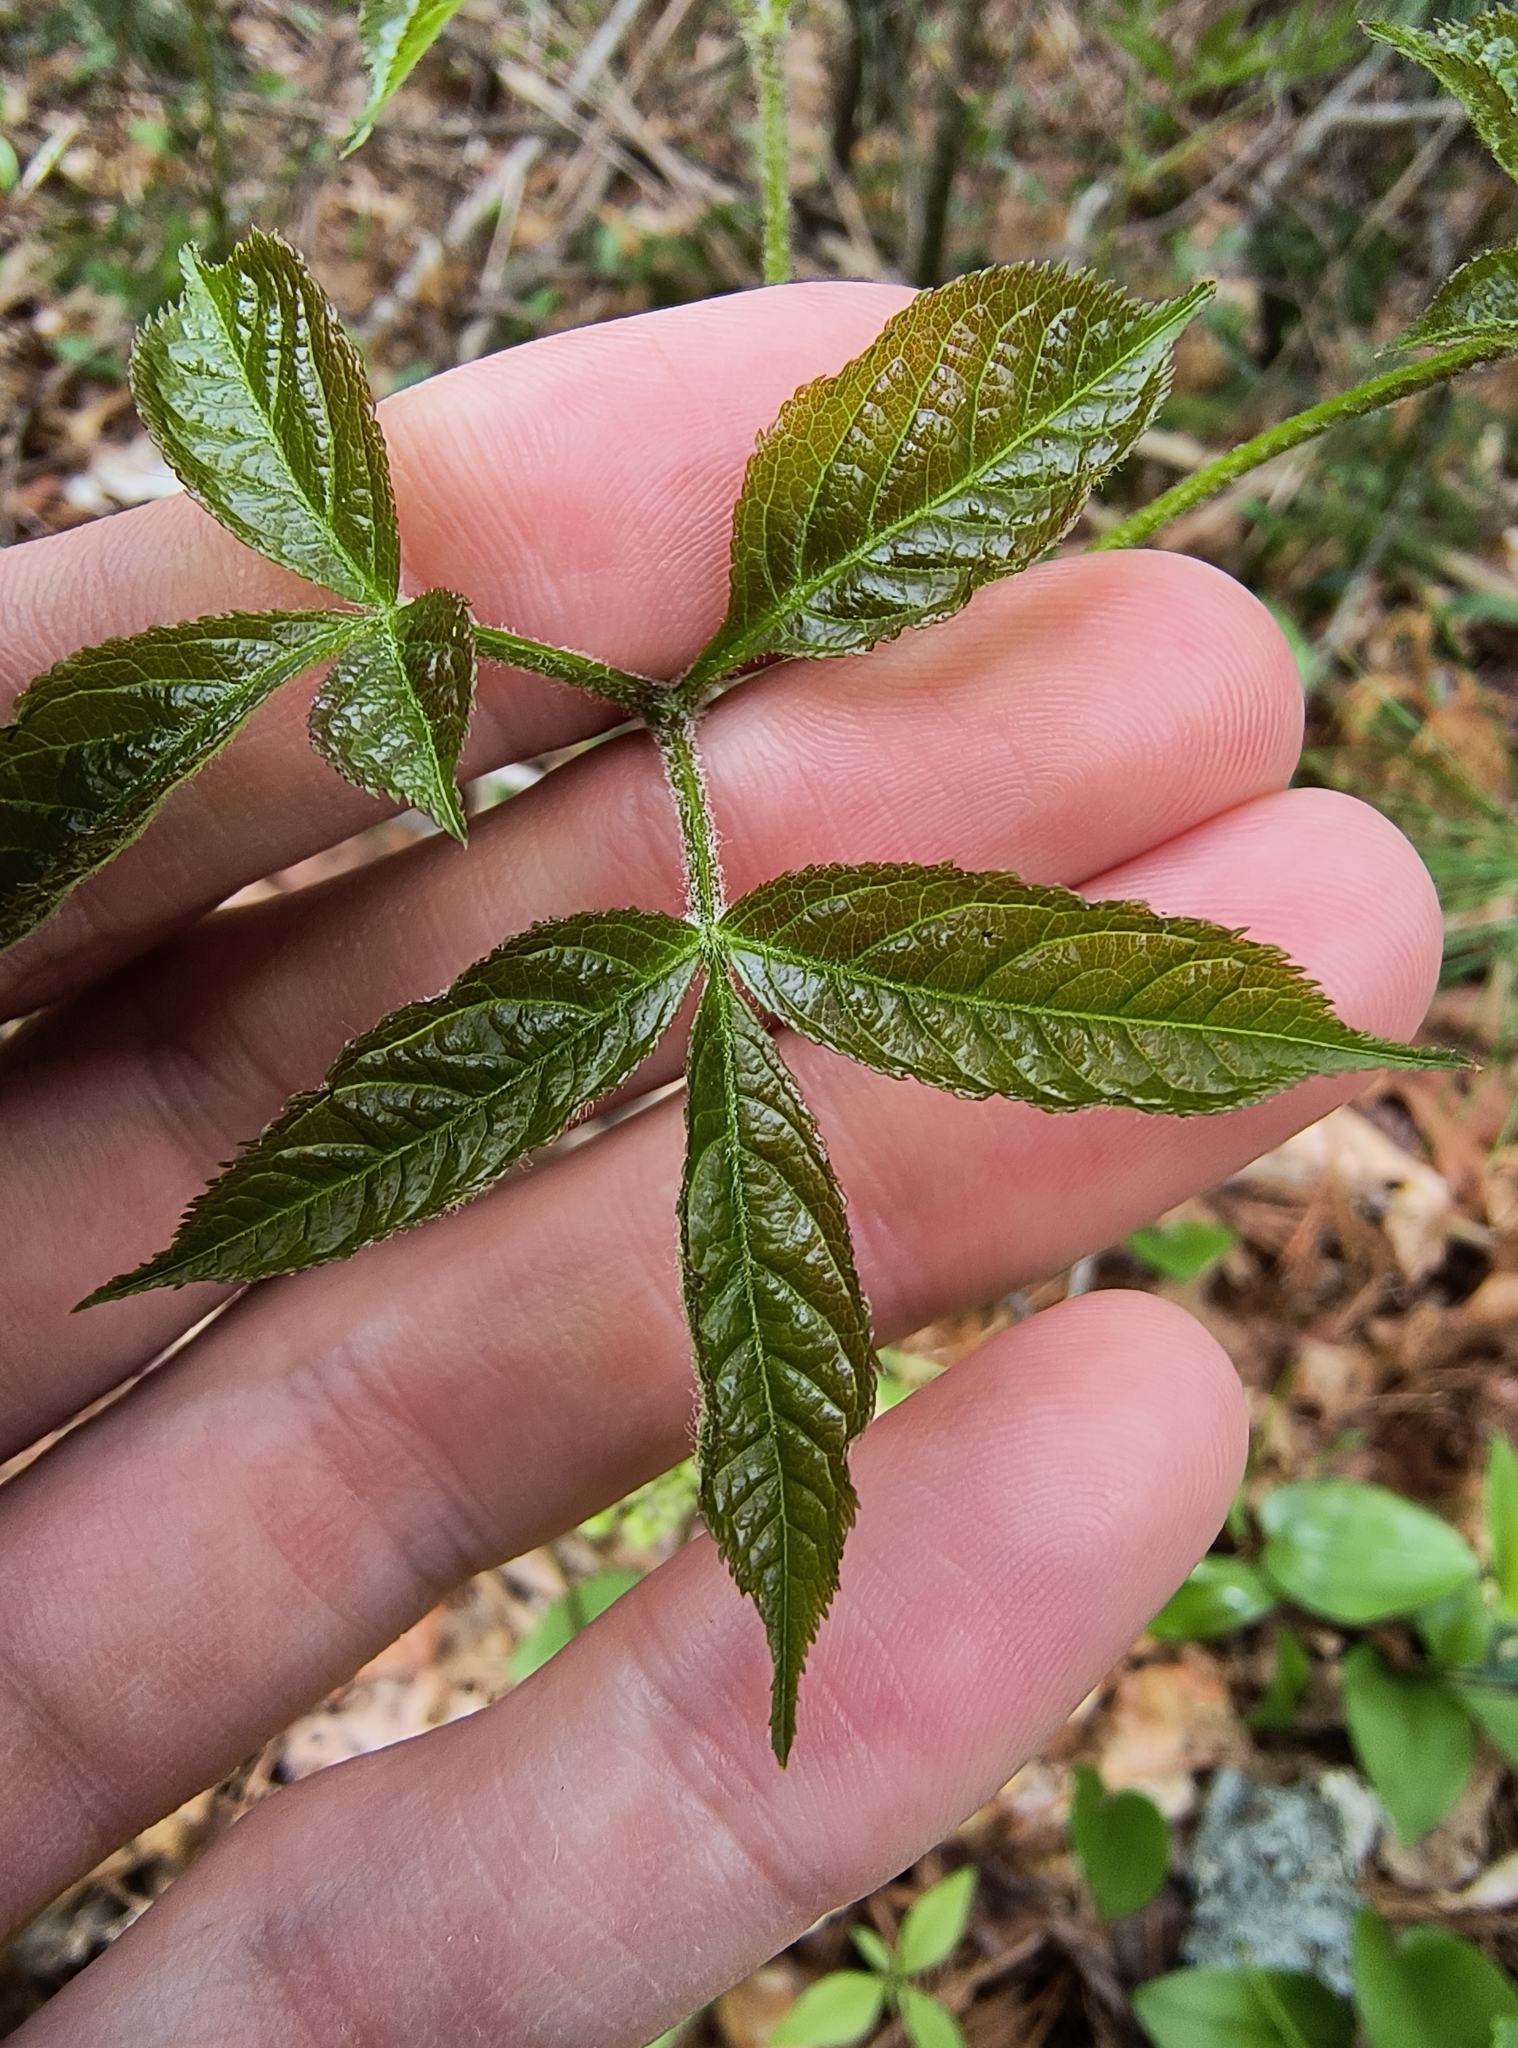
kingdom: Plantae
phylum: Tracheophyta
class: Magnoliopsida
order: Apiales
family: Araliaceae
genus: Aralia
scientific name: Aralia nudicaulis
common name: Wild sarsaparilla
